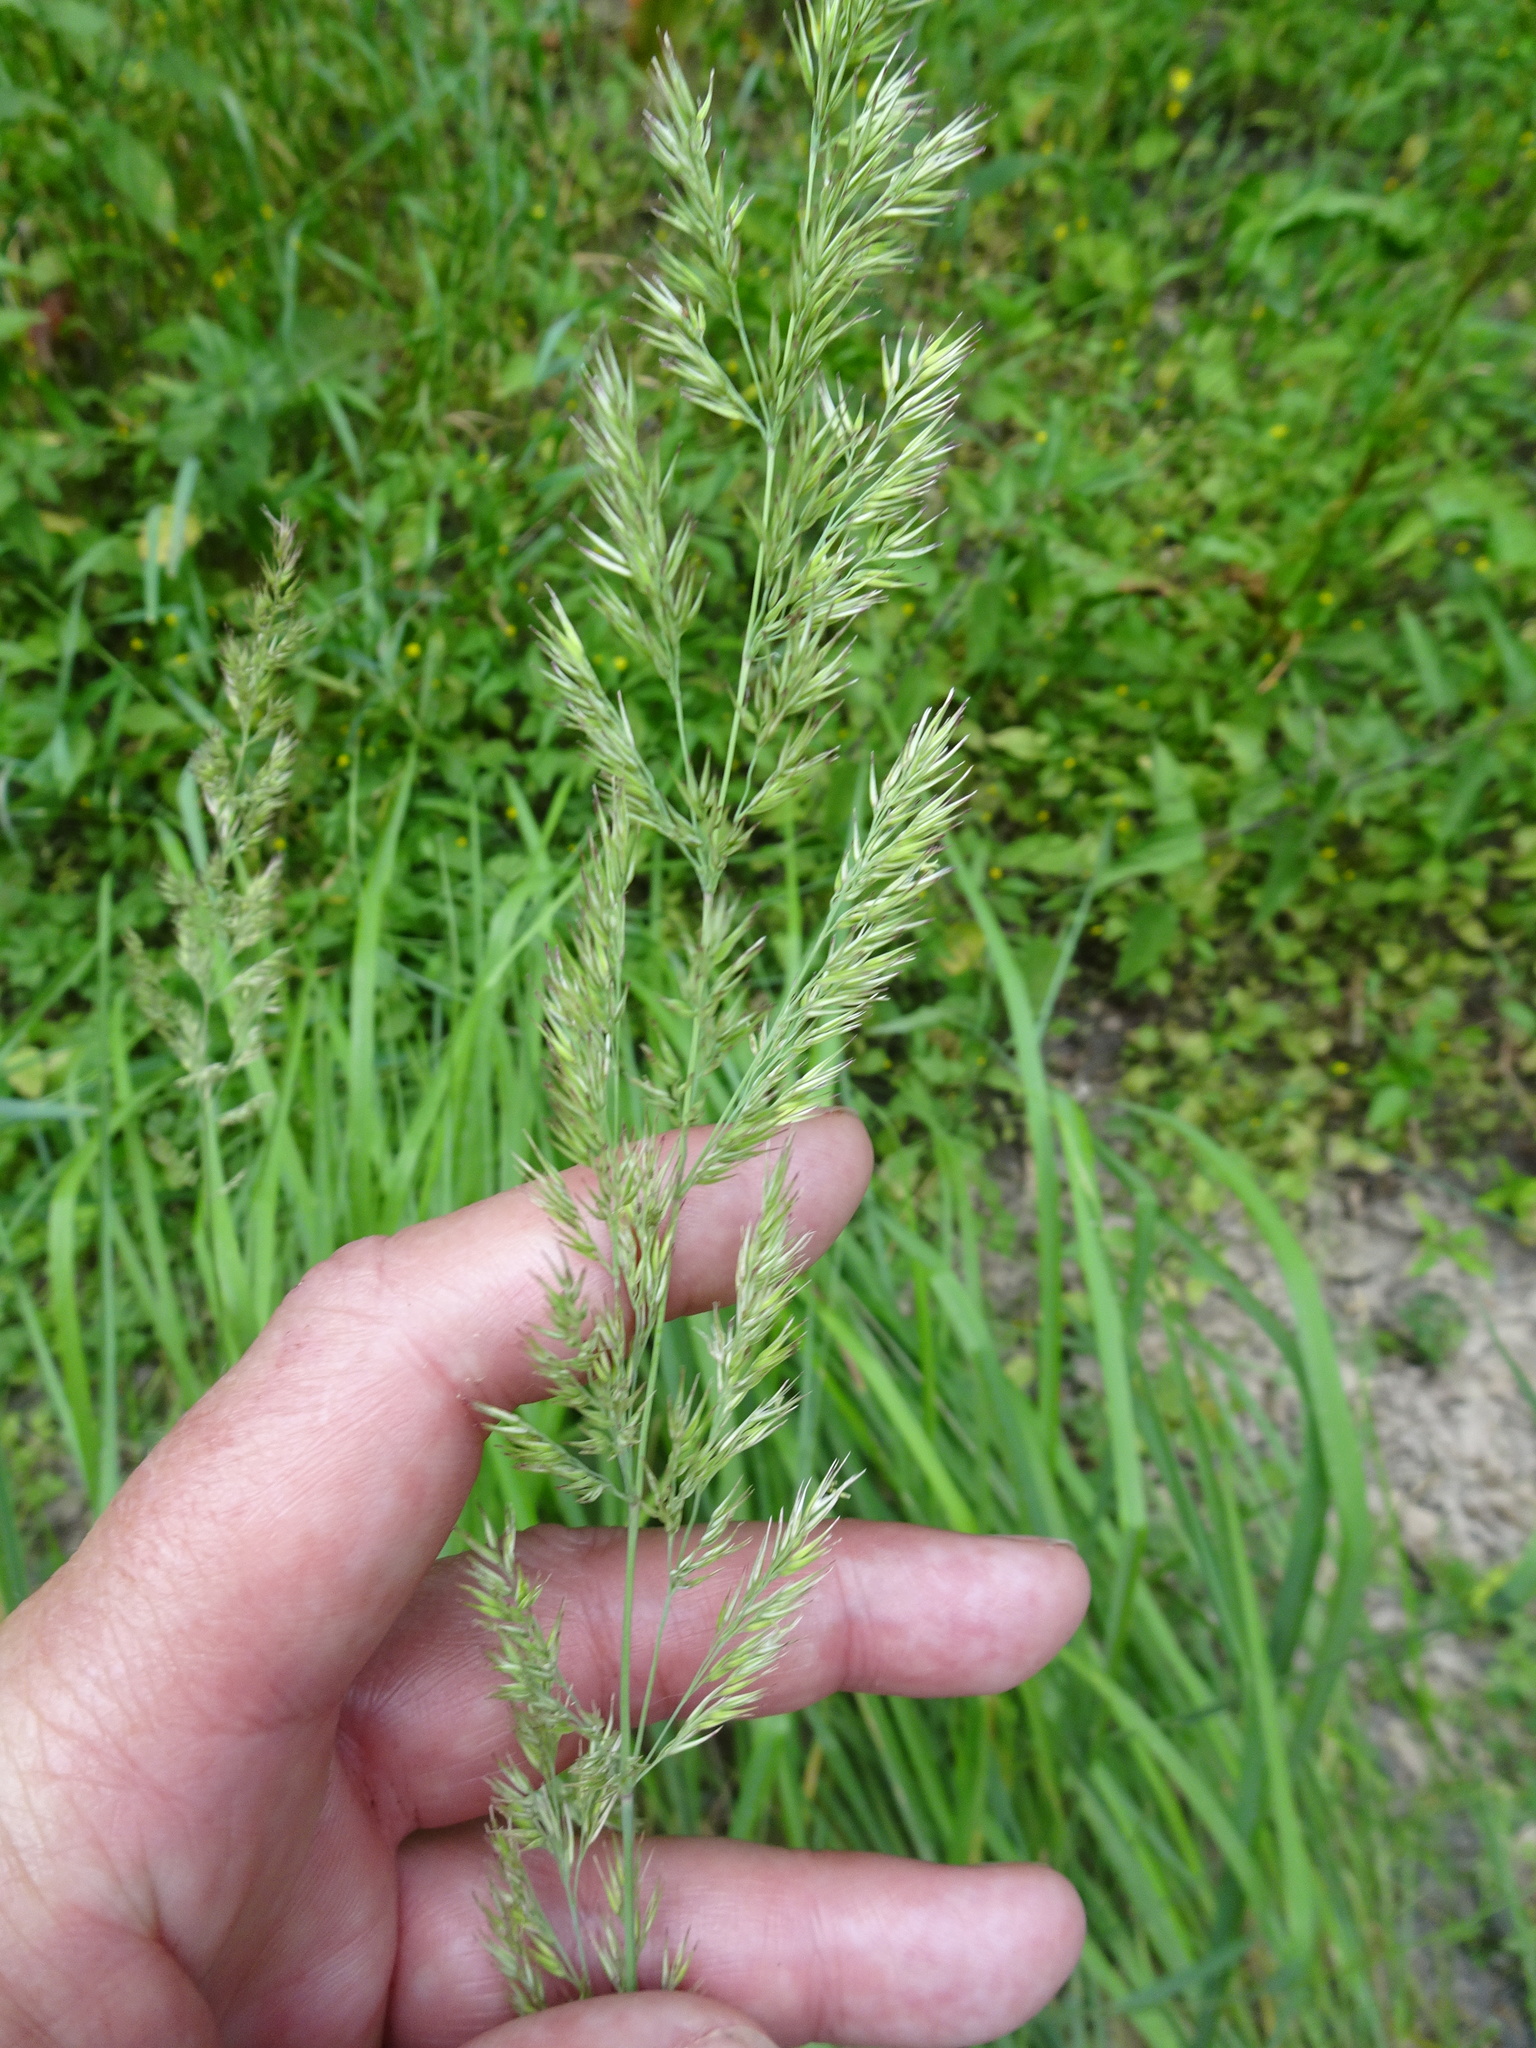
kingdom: Plantae
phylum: Tracheophyta
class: Liliopsida
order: Poales
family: Poaceae
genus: Calamagrostis
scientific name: Calamagrostis epigejos
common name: Wood small-reed
